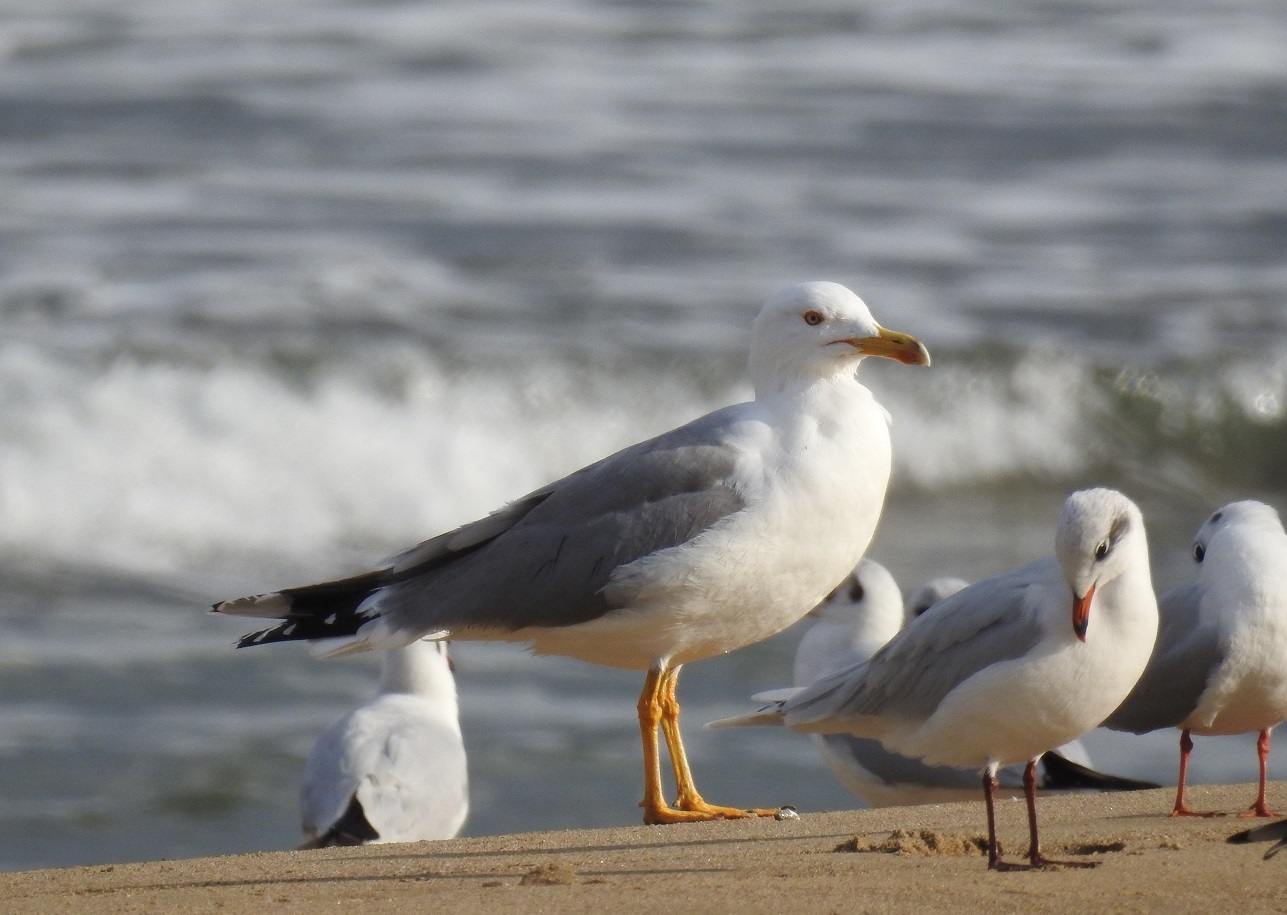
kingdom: Animalia
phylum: Chordata
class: Aves
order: Charadriiformes
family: Laridae
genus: Larus
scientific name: Larus michahellis
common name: Yellow-legged gull
